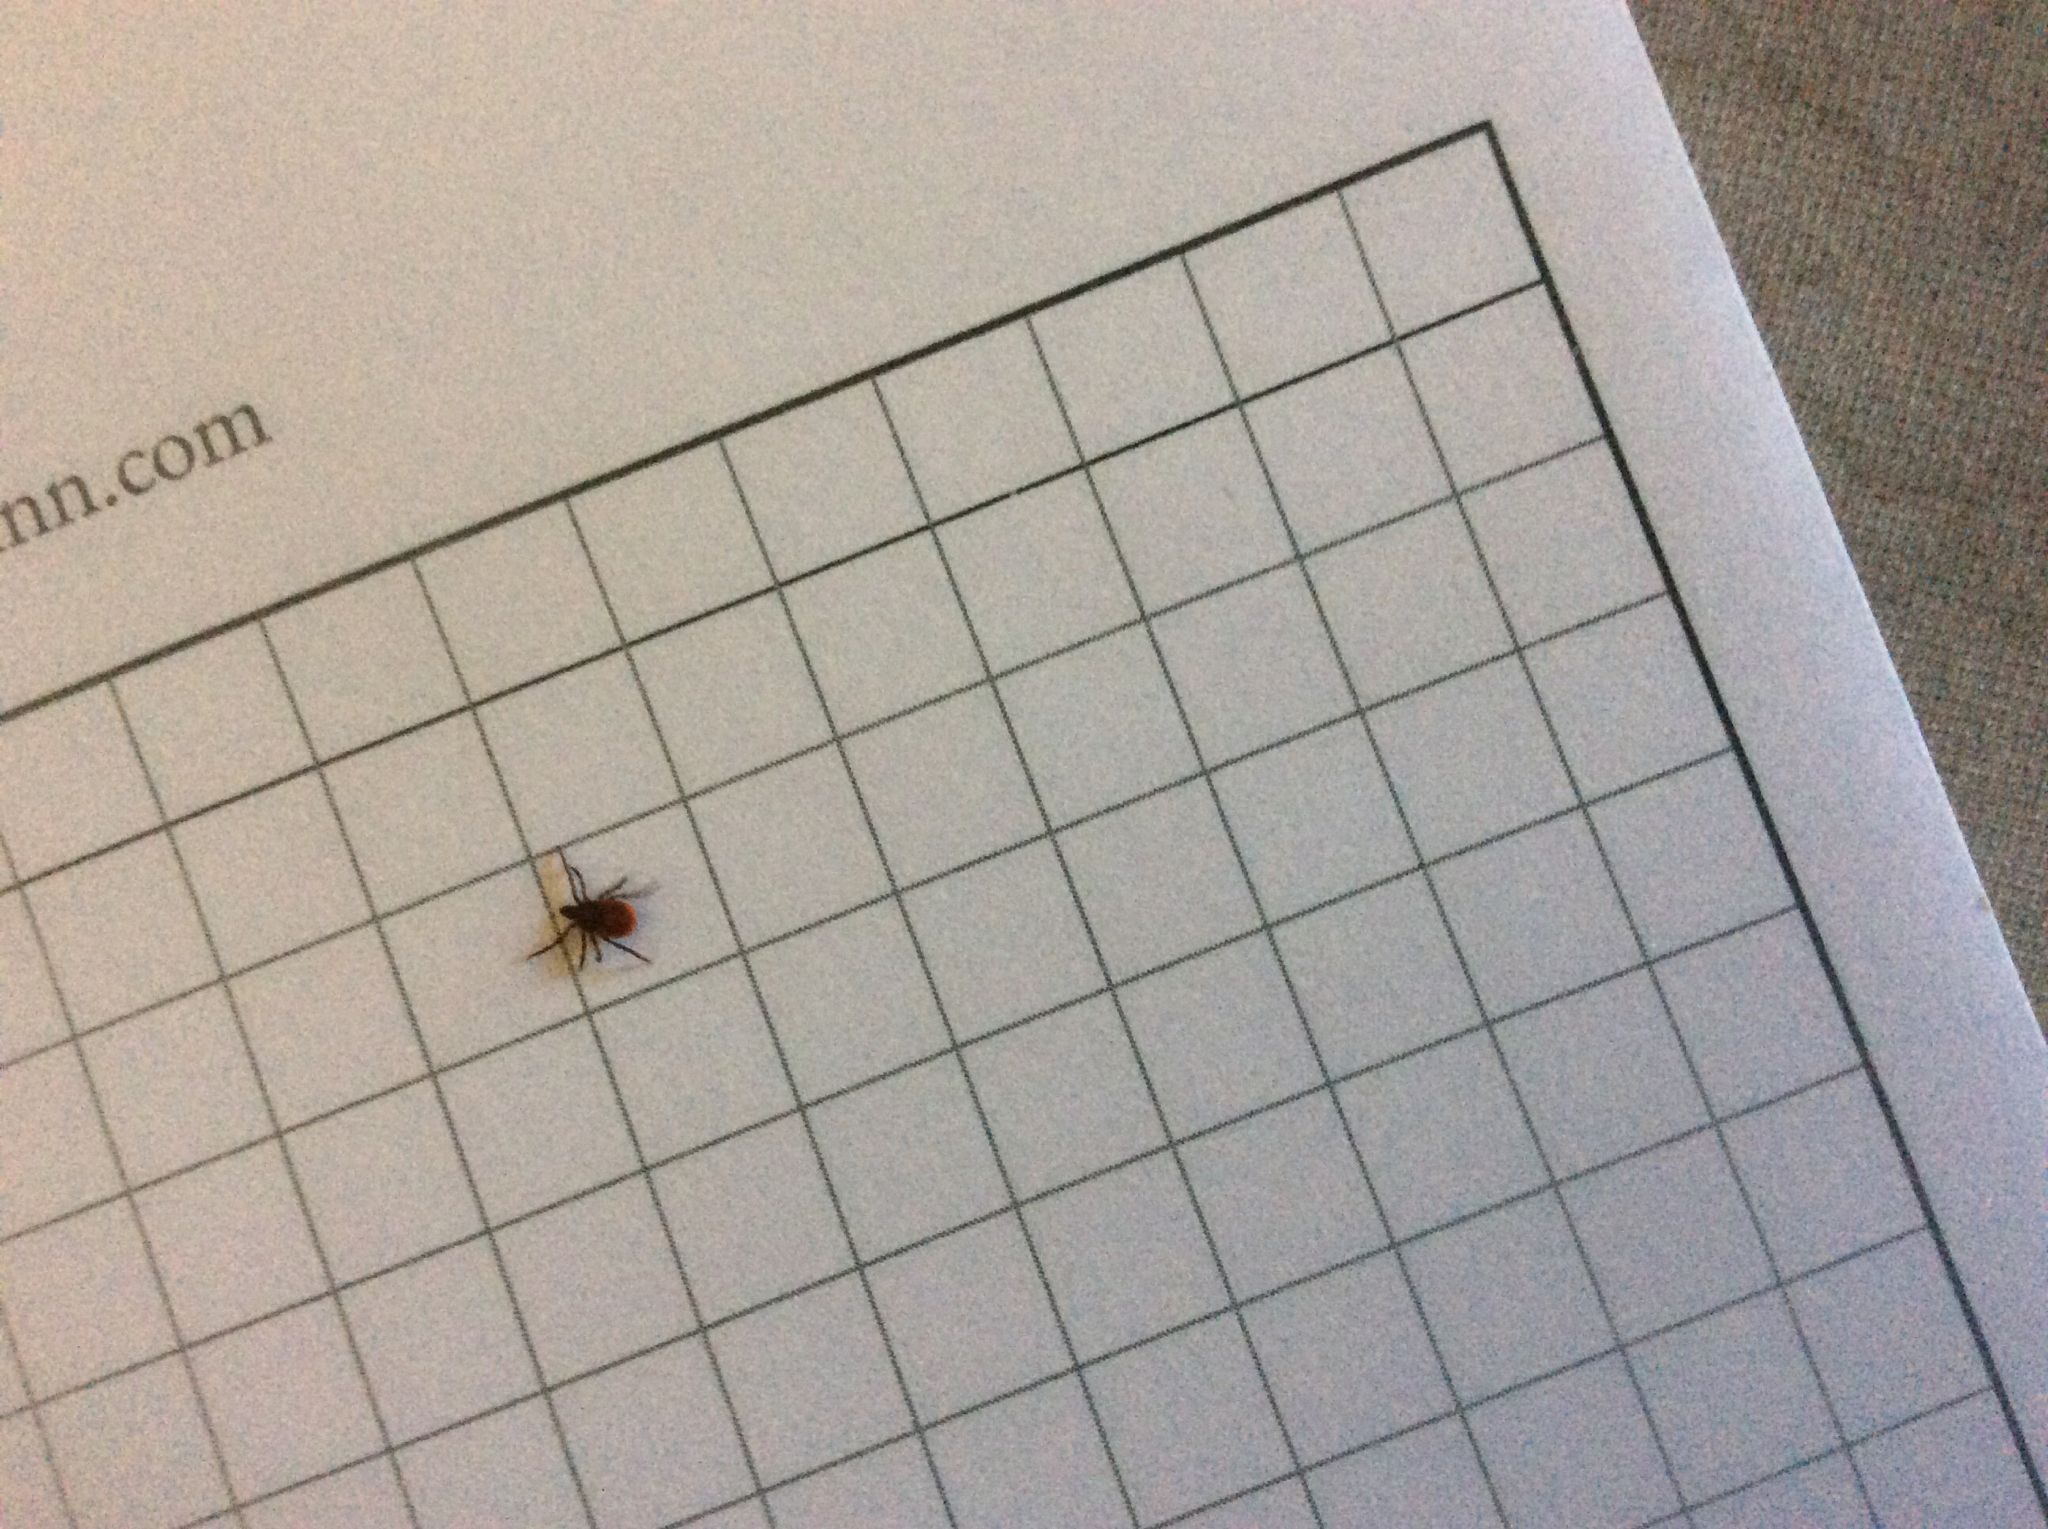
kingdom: Animalia
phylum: Arthropoda
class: Arachnida
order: Ixodida
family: Ixodidae
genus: Ixodes
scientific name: Ixodes scapularis
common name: Black legged tick
